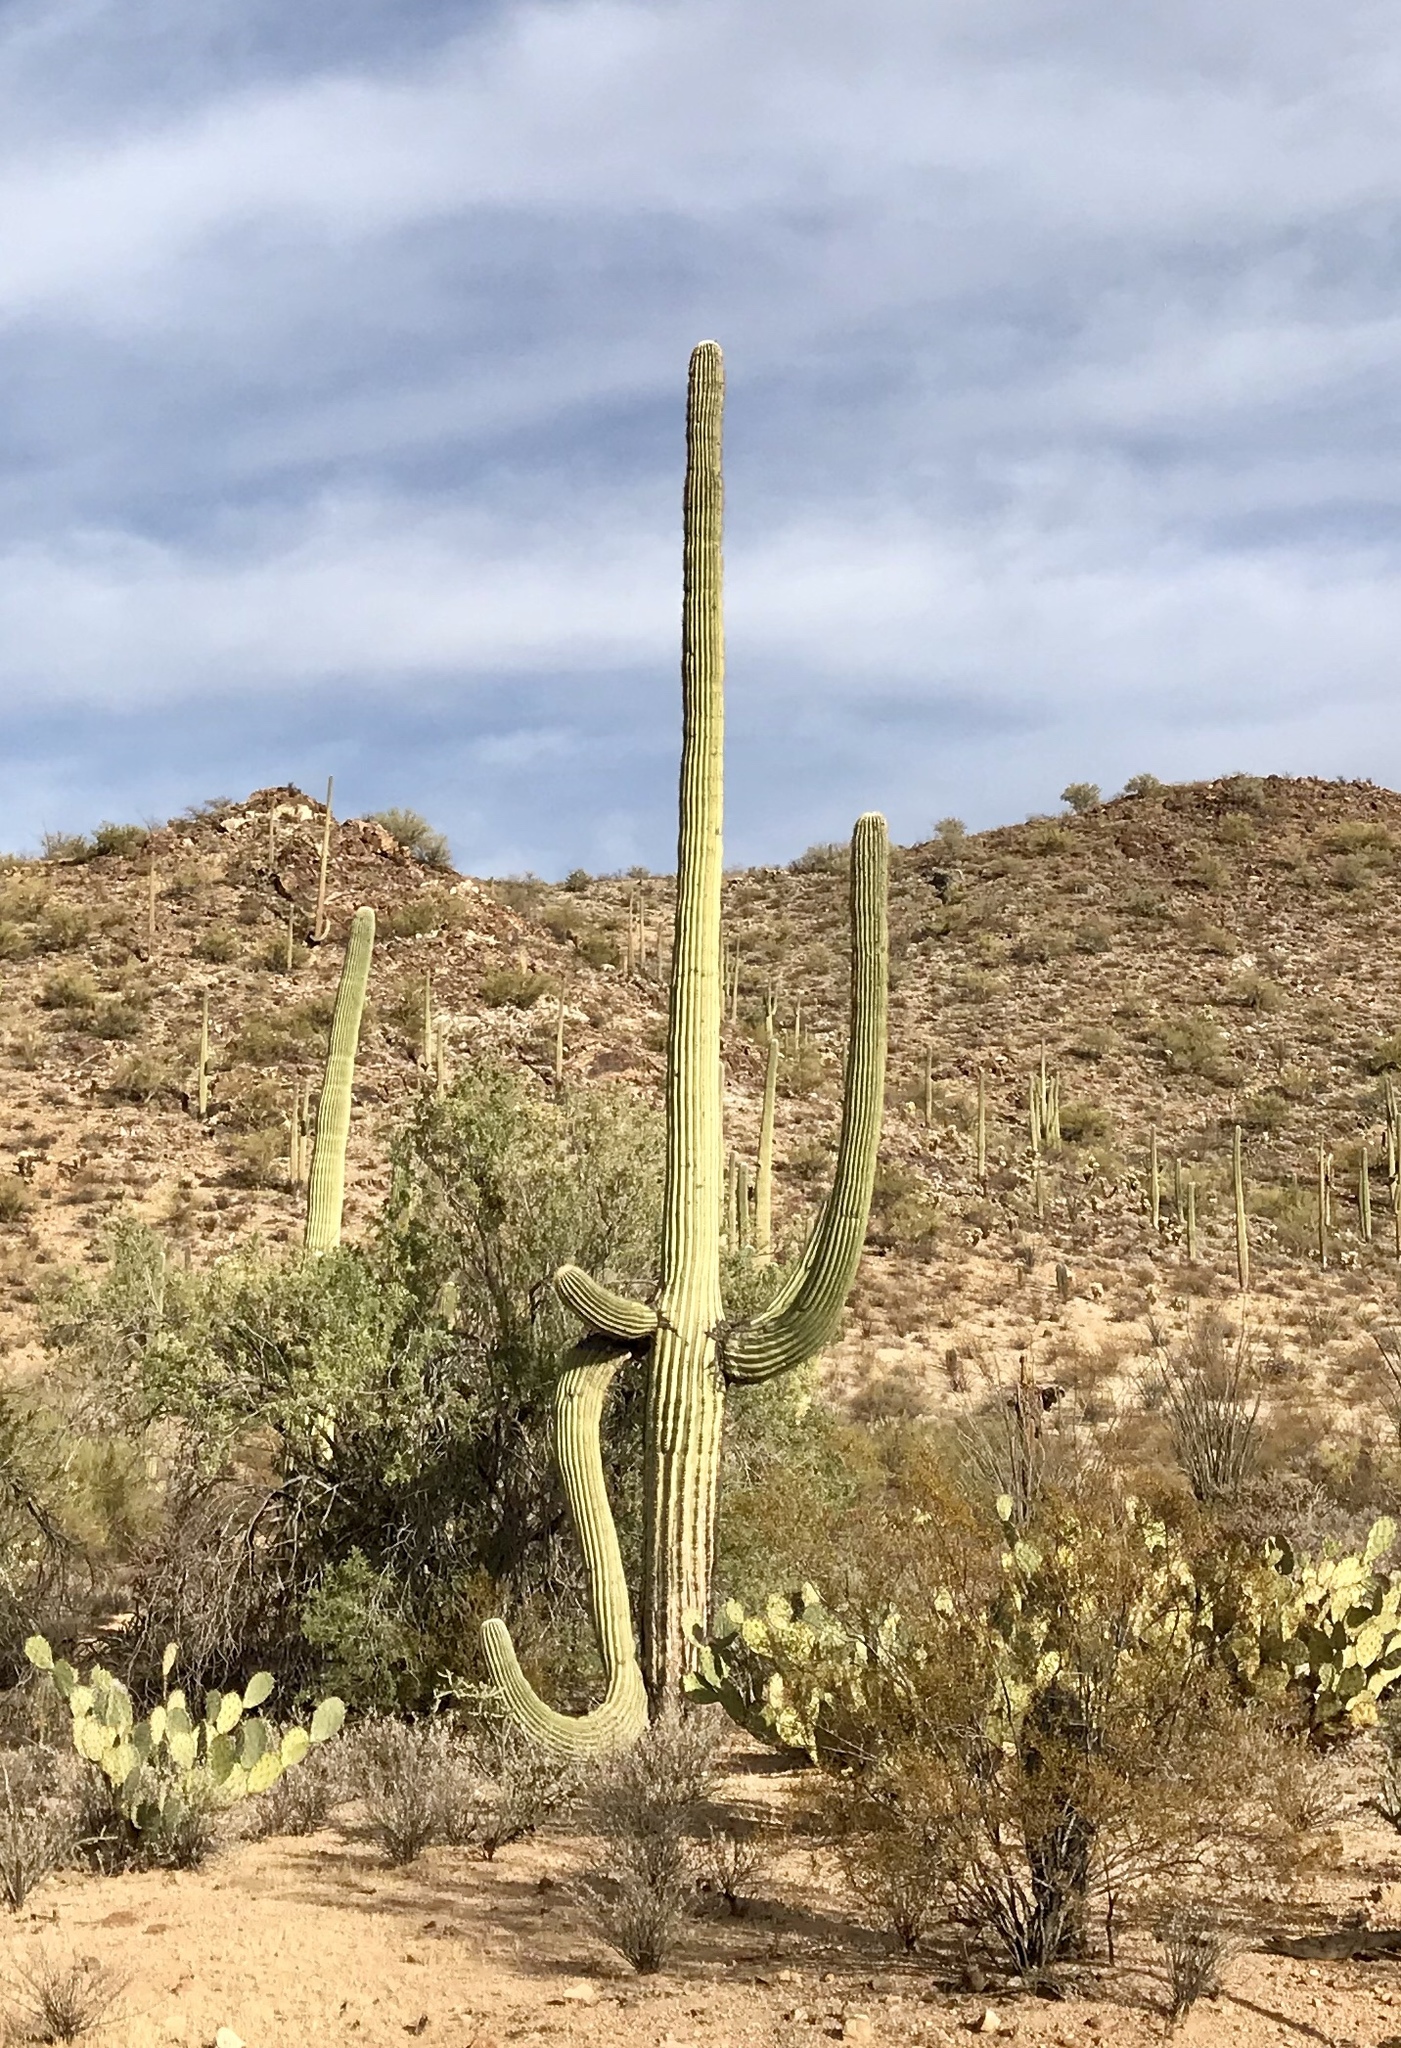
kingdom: Plantae
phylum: Tracheophyta
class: Magnoliopsida
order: Caryophyllales
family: Cactaceae
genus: Carnegiea
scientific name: Carnegiea gigantea
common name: Saguaro
